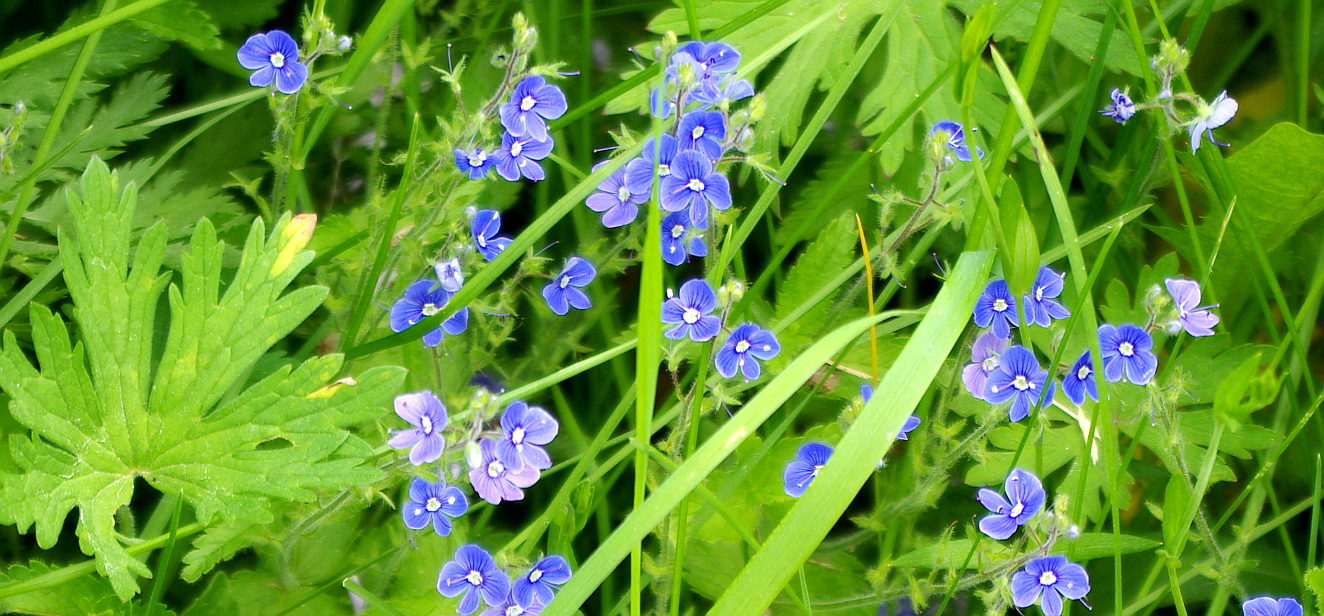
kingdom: Plantae
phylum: Tracheophyta
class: Magnoliopsida
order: Lamiales
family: Plantaginaceae
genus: Veronica
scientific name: Veronica chamaedrys
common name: Germander speedwell
